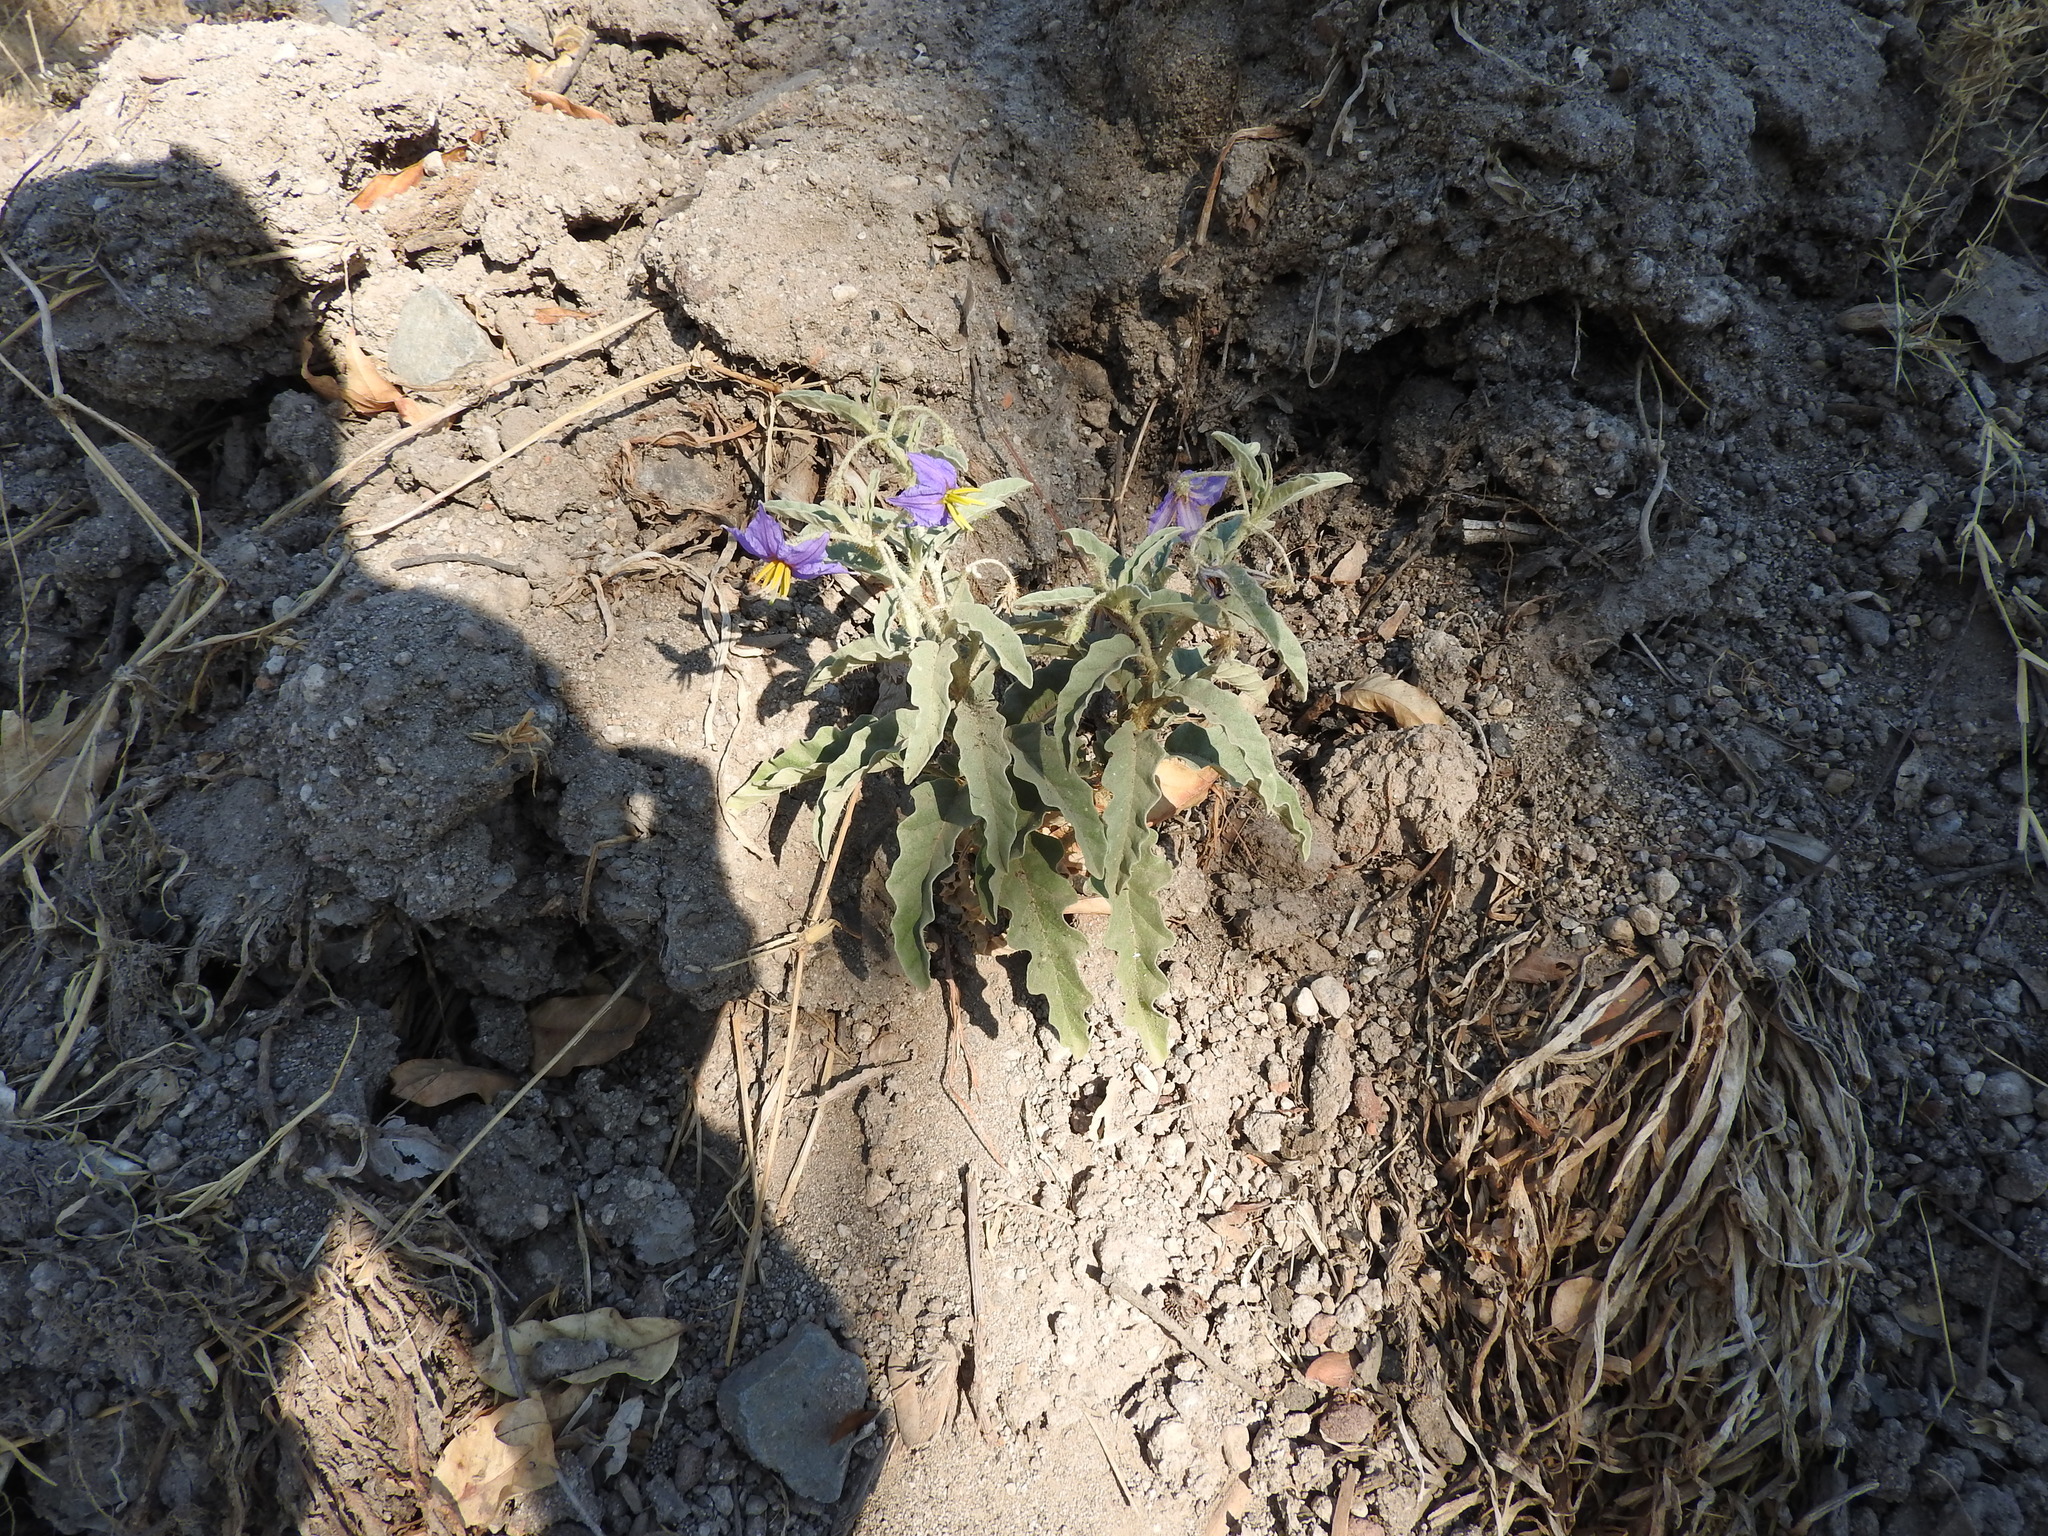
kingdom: Plantae
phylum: Tracheophyta
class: Magnoliopsida
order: Solanales
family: Solanaceae
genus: Solanum
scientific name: Solanum elaeagnifolium
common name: Silverleaf nightshade
